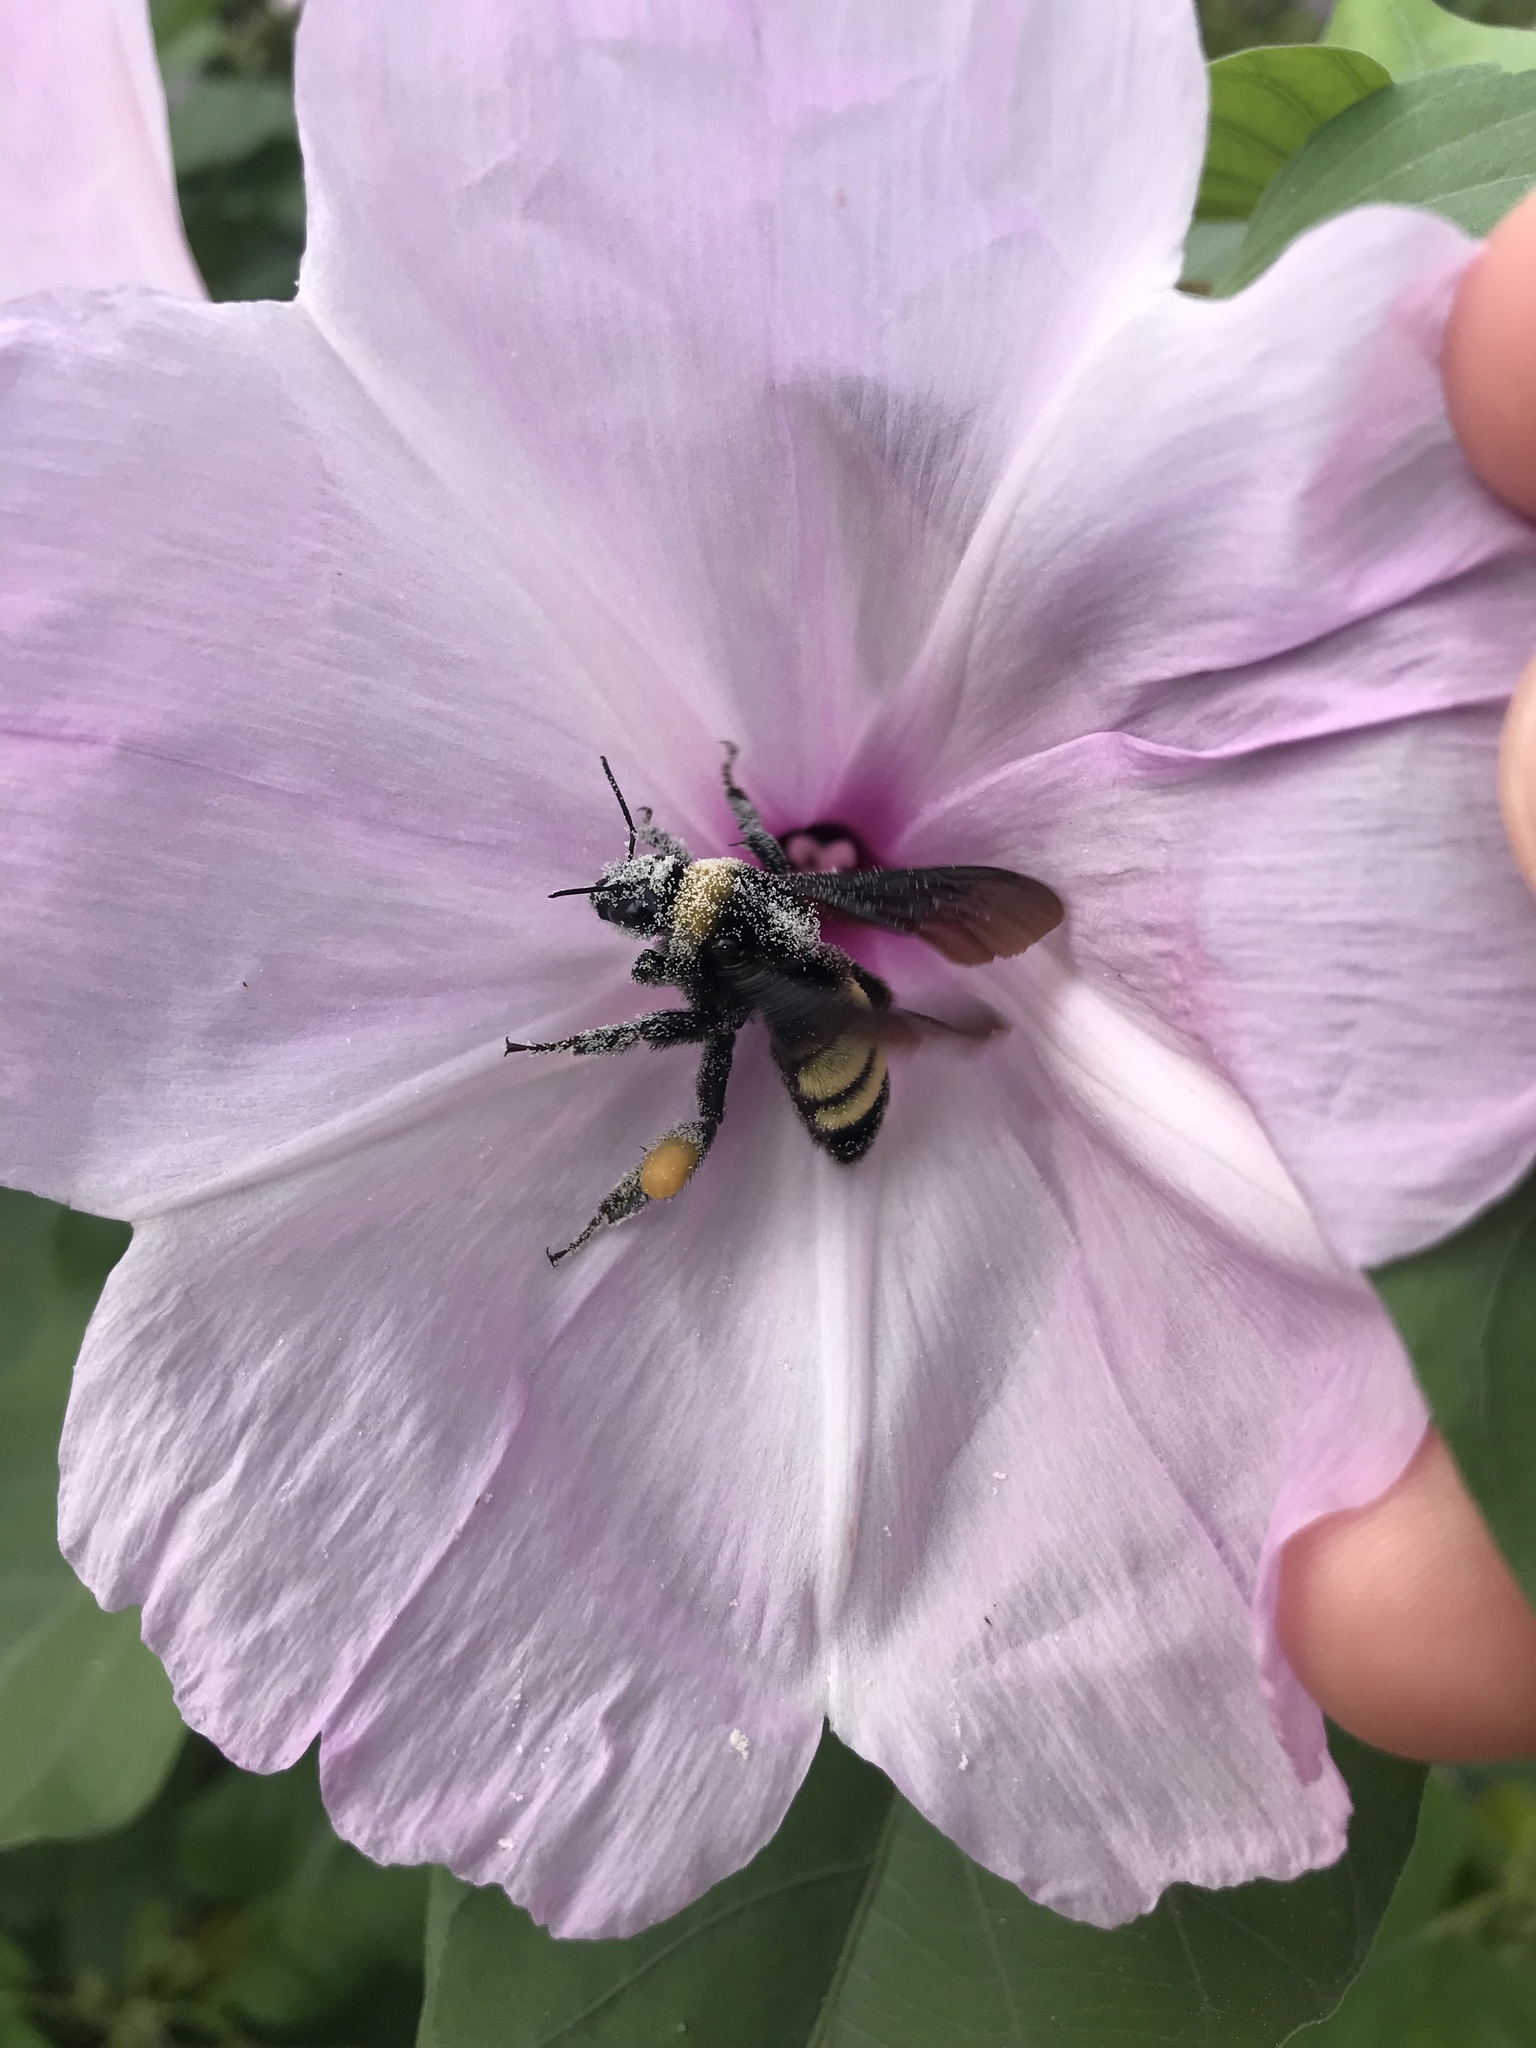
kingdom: Animalia
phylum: Arthropoda
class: Insecta
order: Hymenoptera
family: Apidae
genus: Bombus
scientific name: Bombus pensylvanicus
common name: Bumble bee
